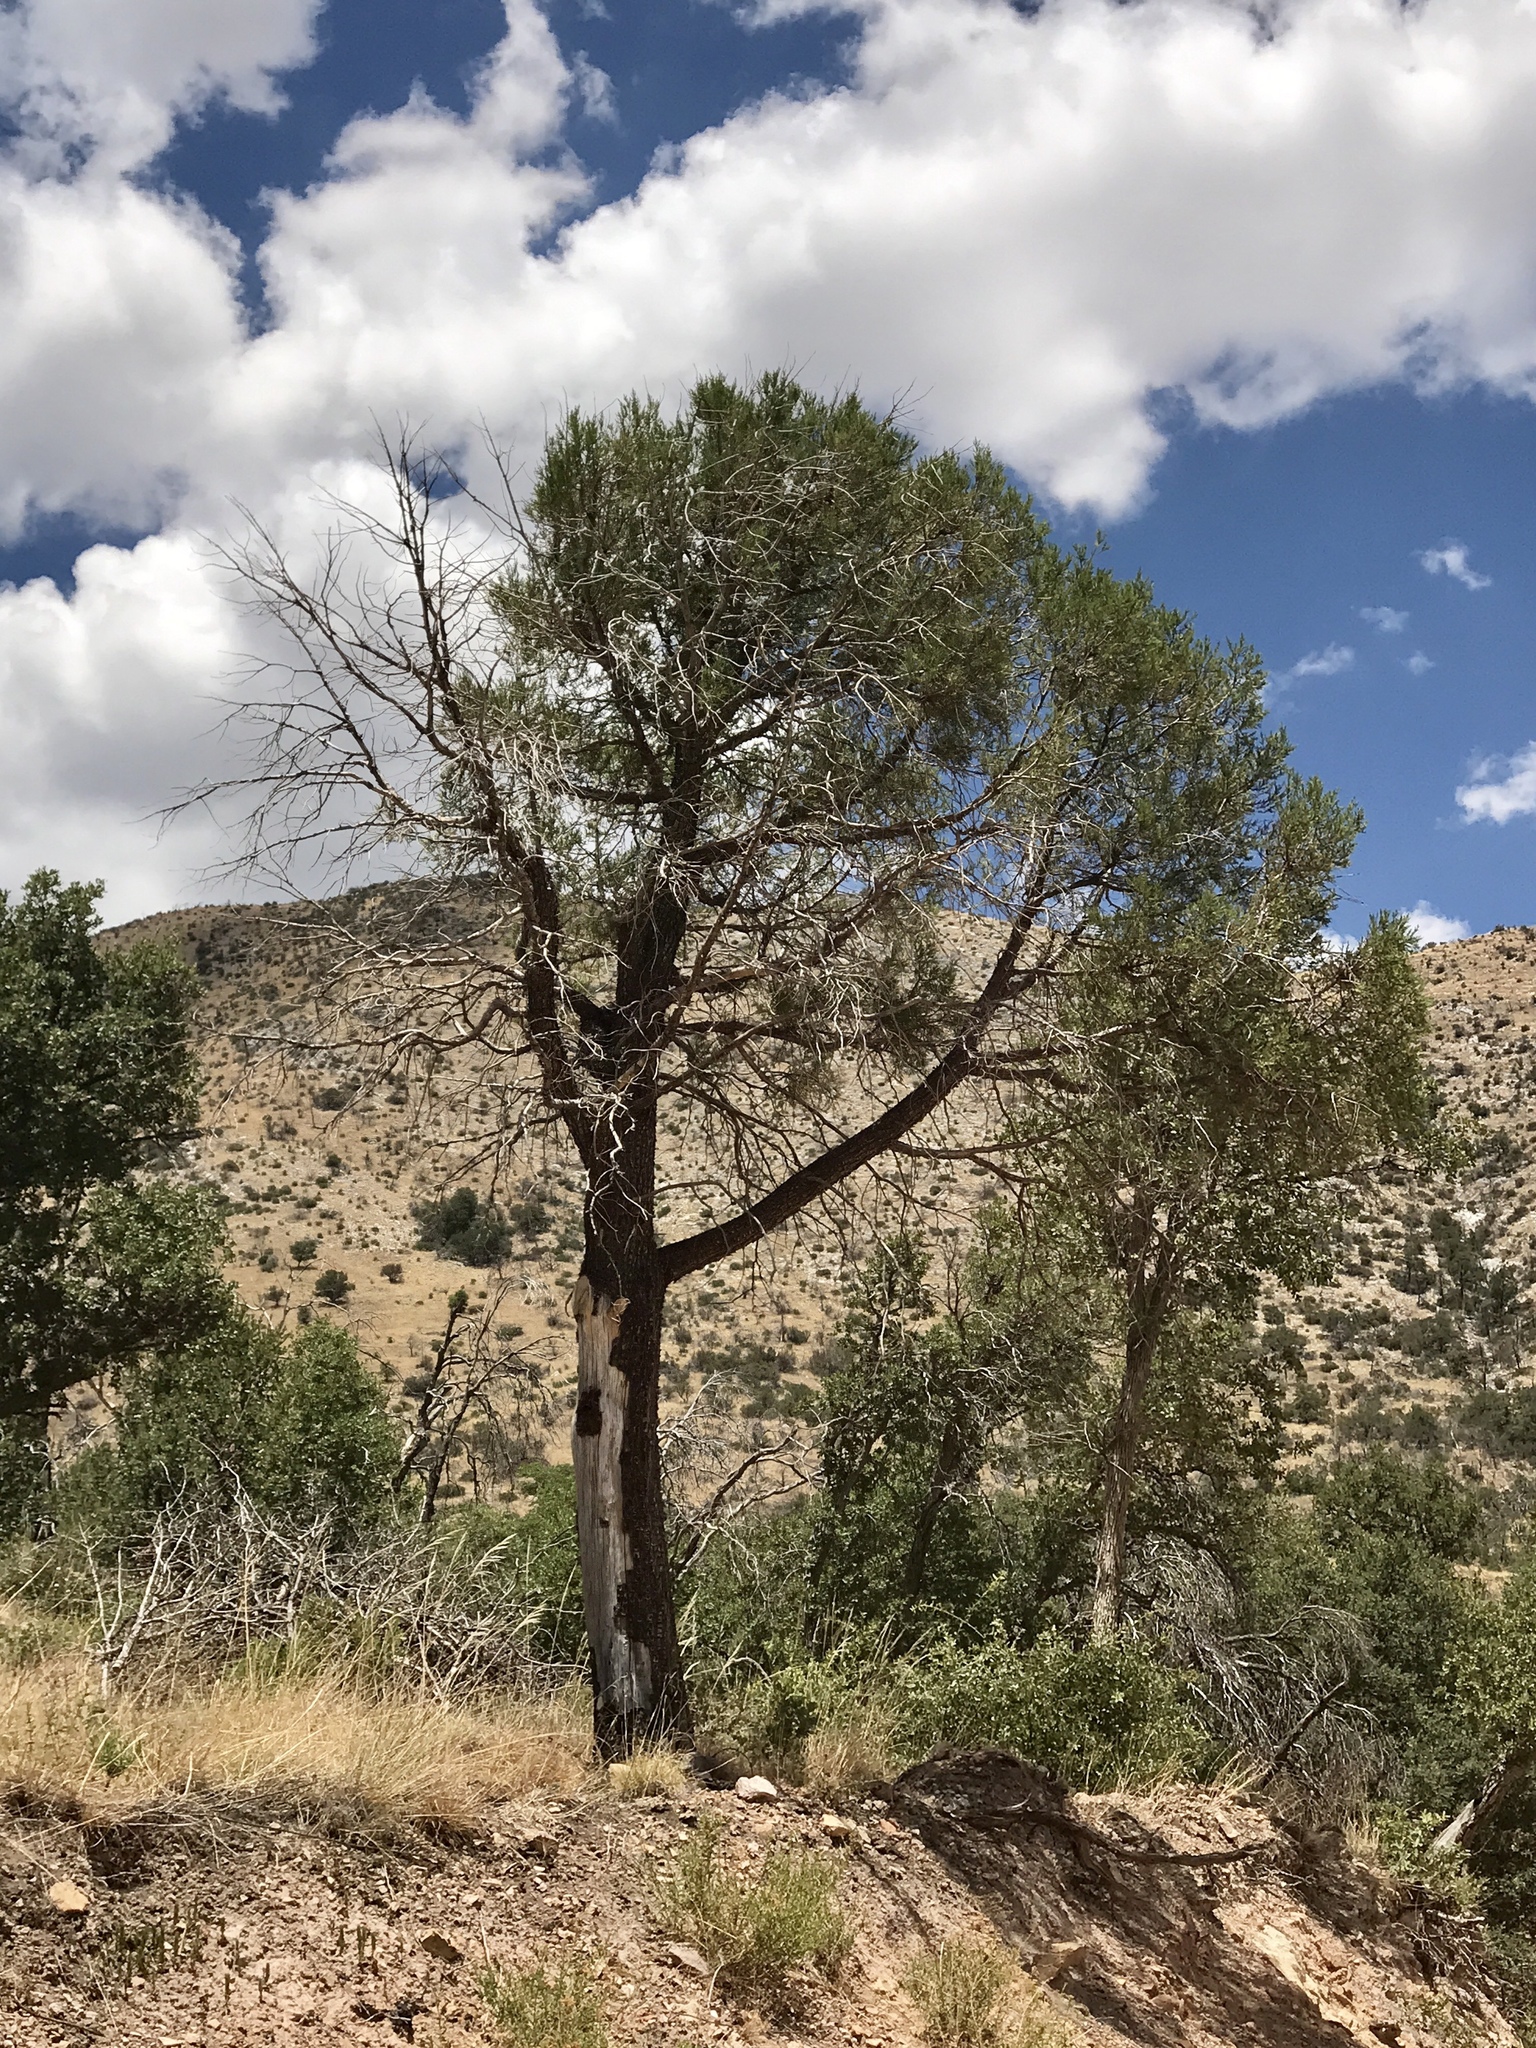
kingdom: Plantae
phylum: Tracheophyta
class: Pinopsida
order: Pinales
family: Cupressaceae
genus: Juniperus
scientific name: Juniperus deppeana
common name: Alligator juniper
